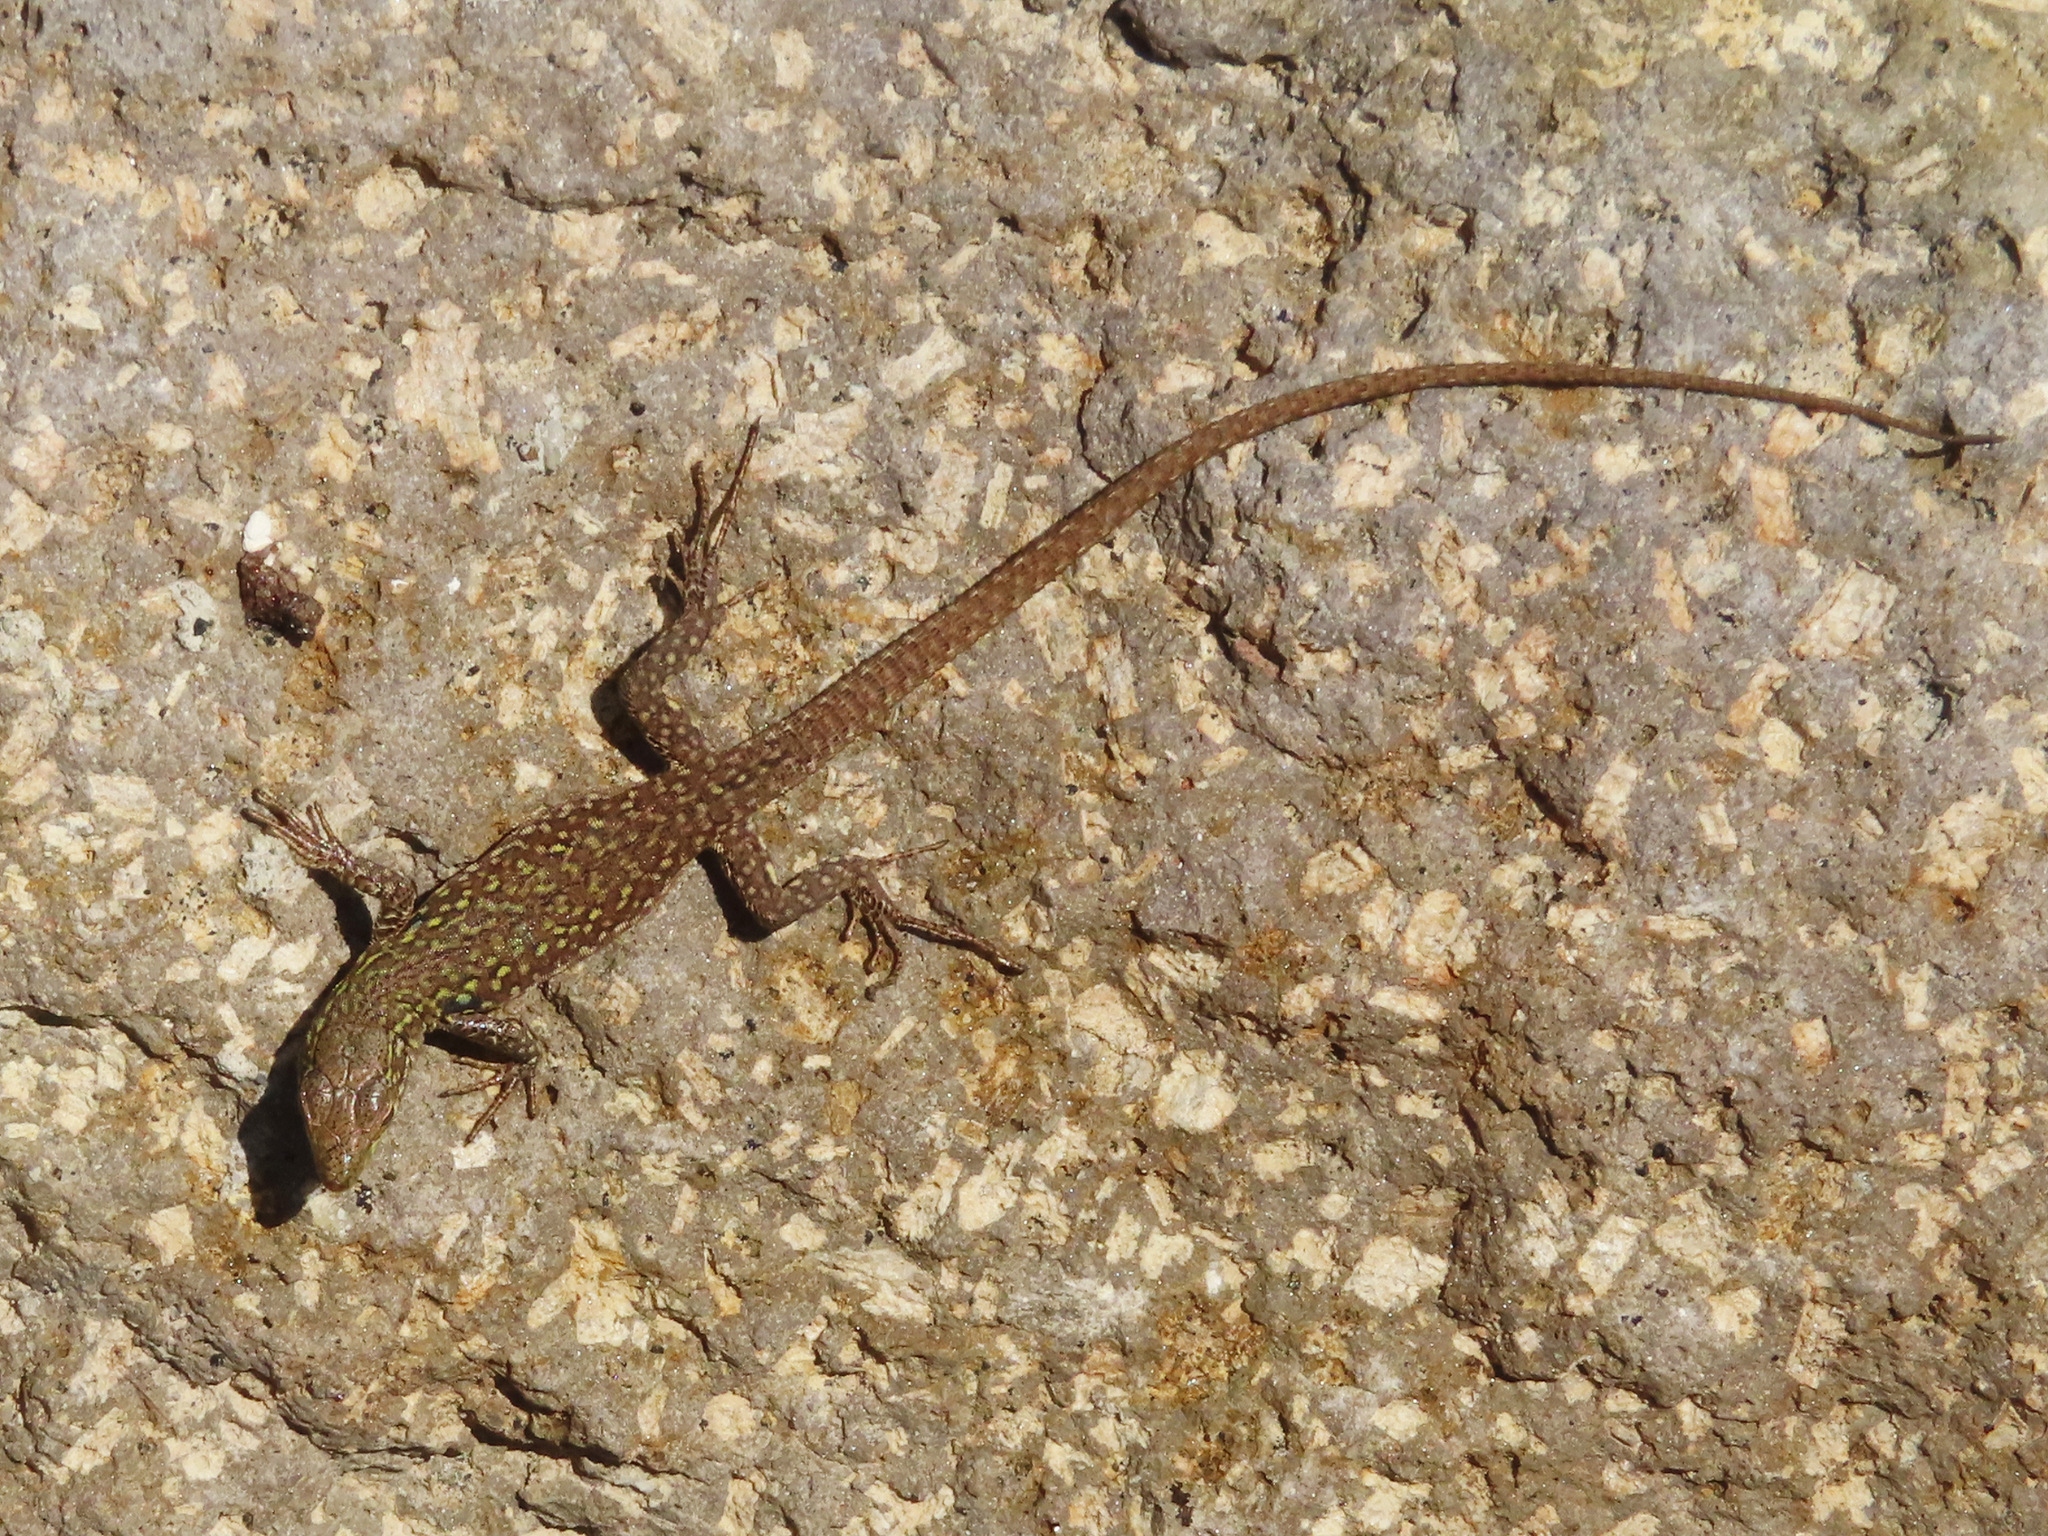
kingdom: Animalia
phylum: Chordata
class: Squamata
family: Lacertidae
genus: Podarcis
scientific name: Podarcis siculus
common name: Italian wall lizard
